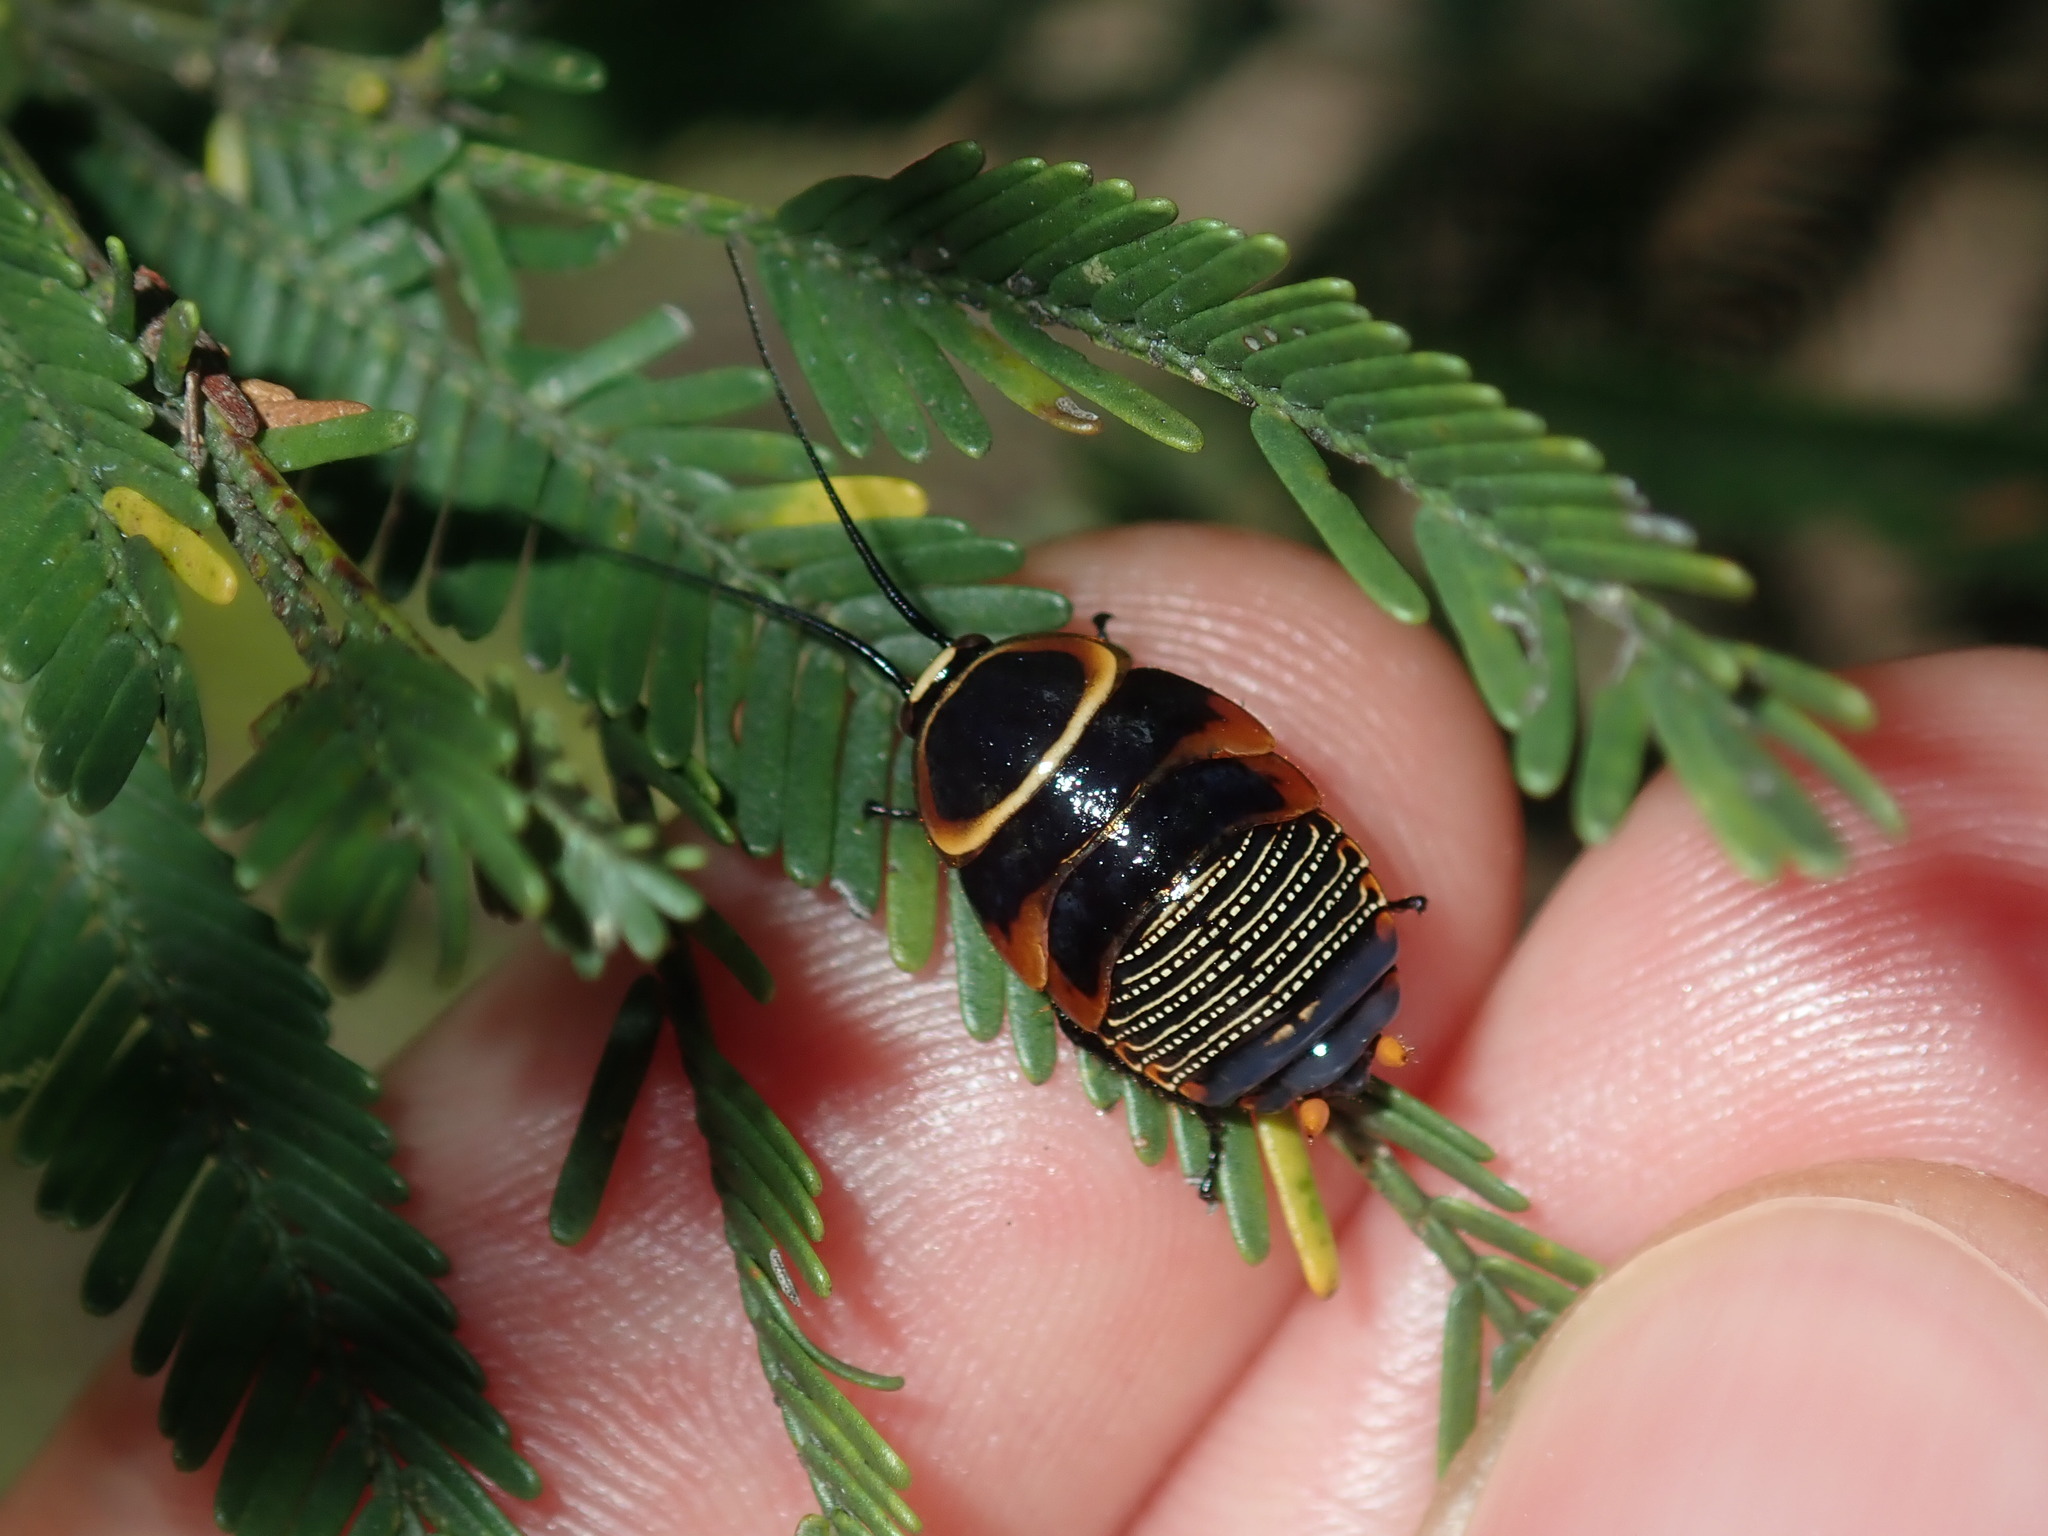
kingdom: Animalia
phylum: Arthropoda
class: Insecta
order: Blattodea
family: Ectobiidae
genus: Ellipsidion
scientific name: Ellipsidion australe
